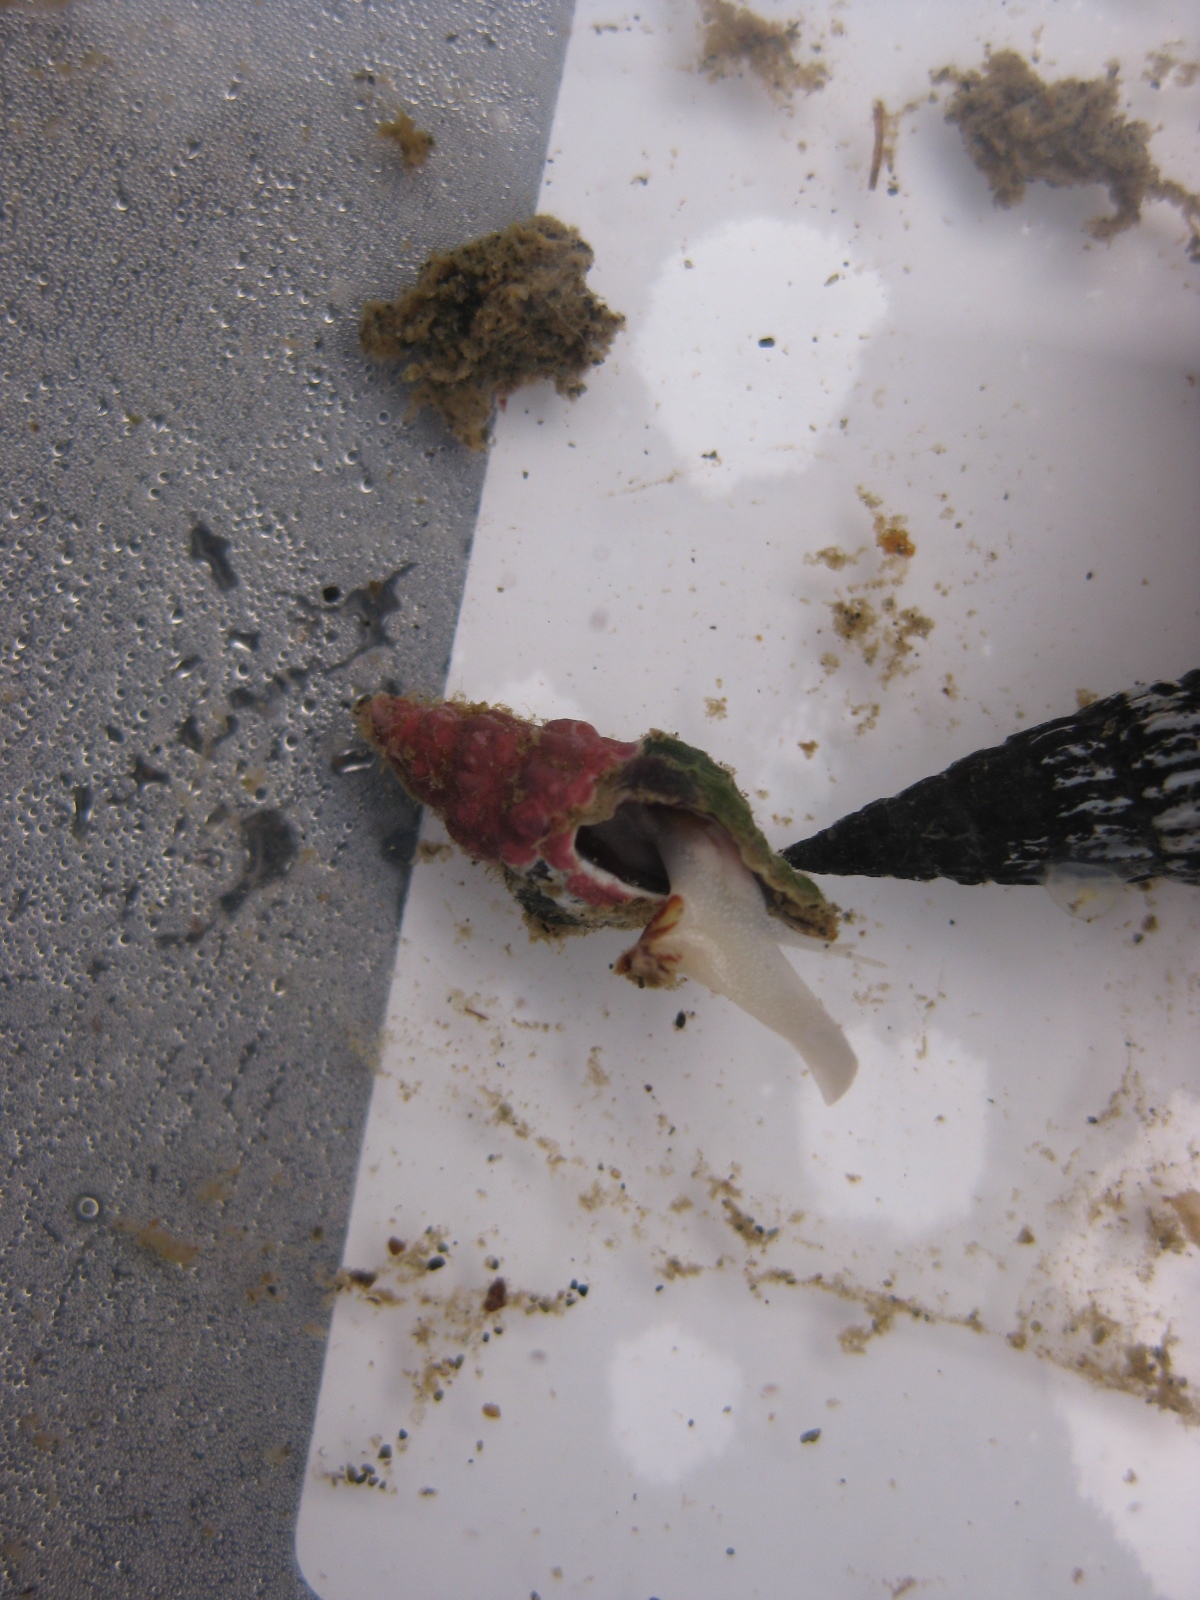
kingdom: Animalia
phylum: Mollusca
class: Gastropoda
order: Neogastropoda
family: Muricidae
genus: Lamellitrophon
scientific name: Lamellitrophon traversi
